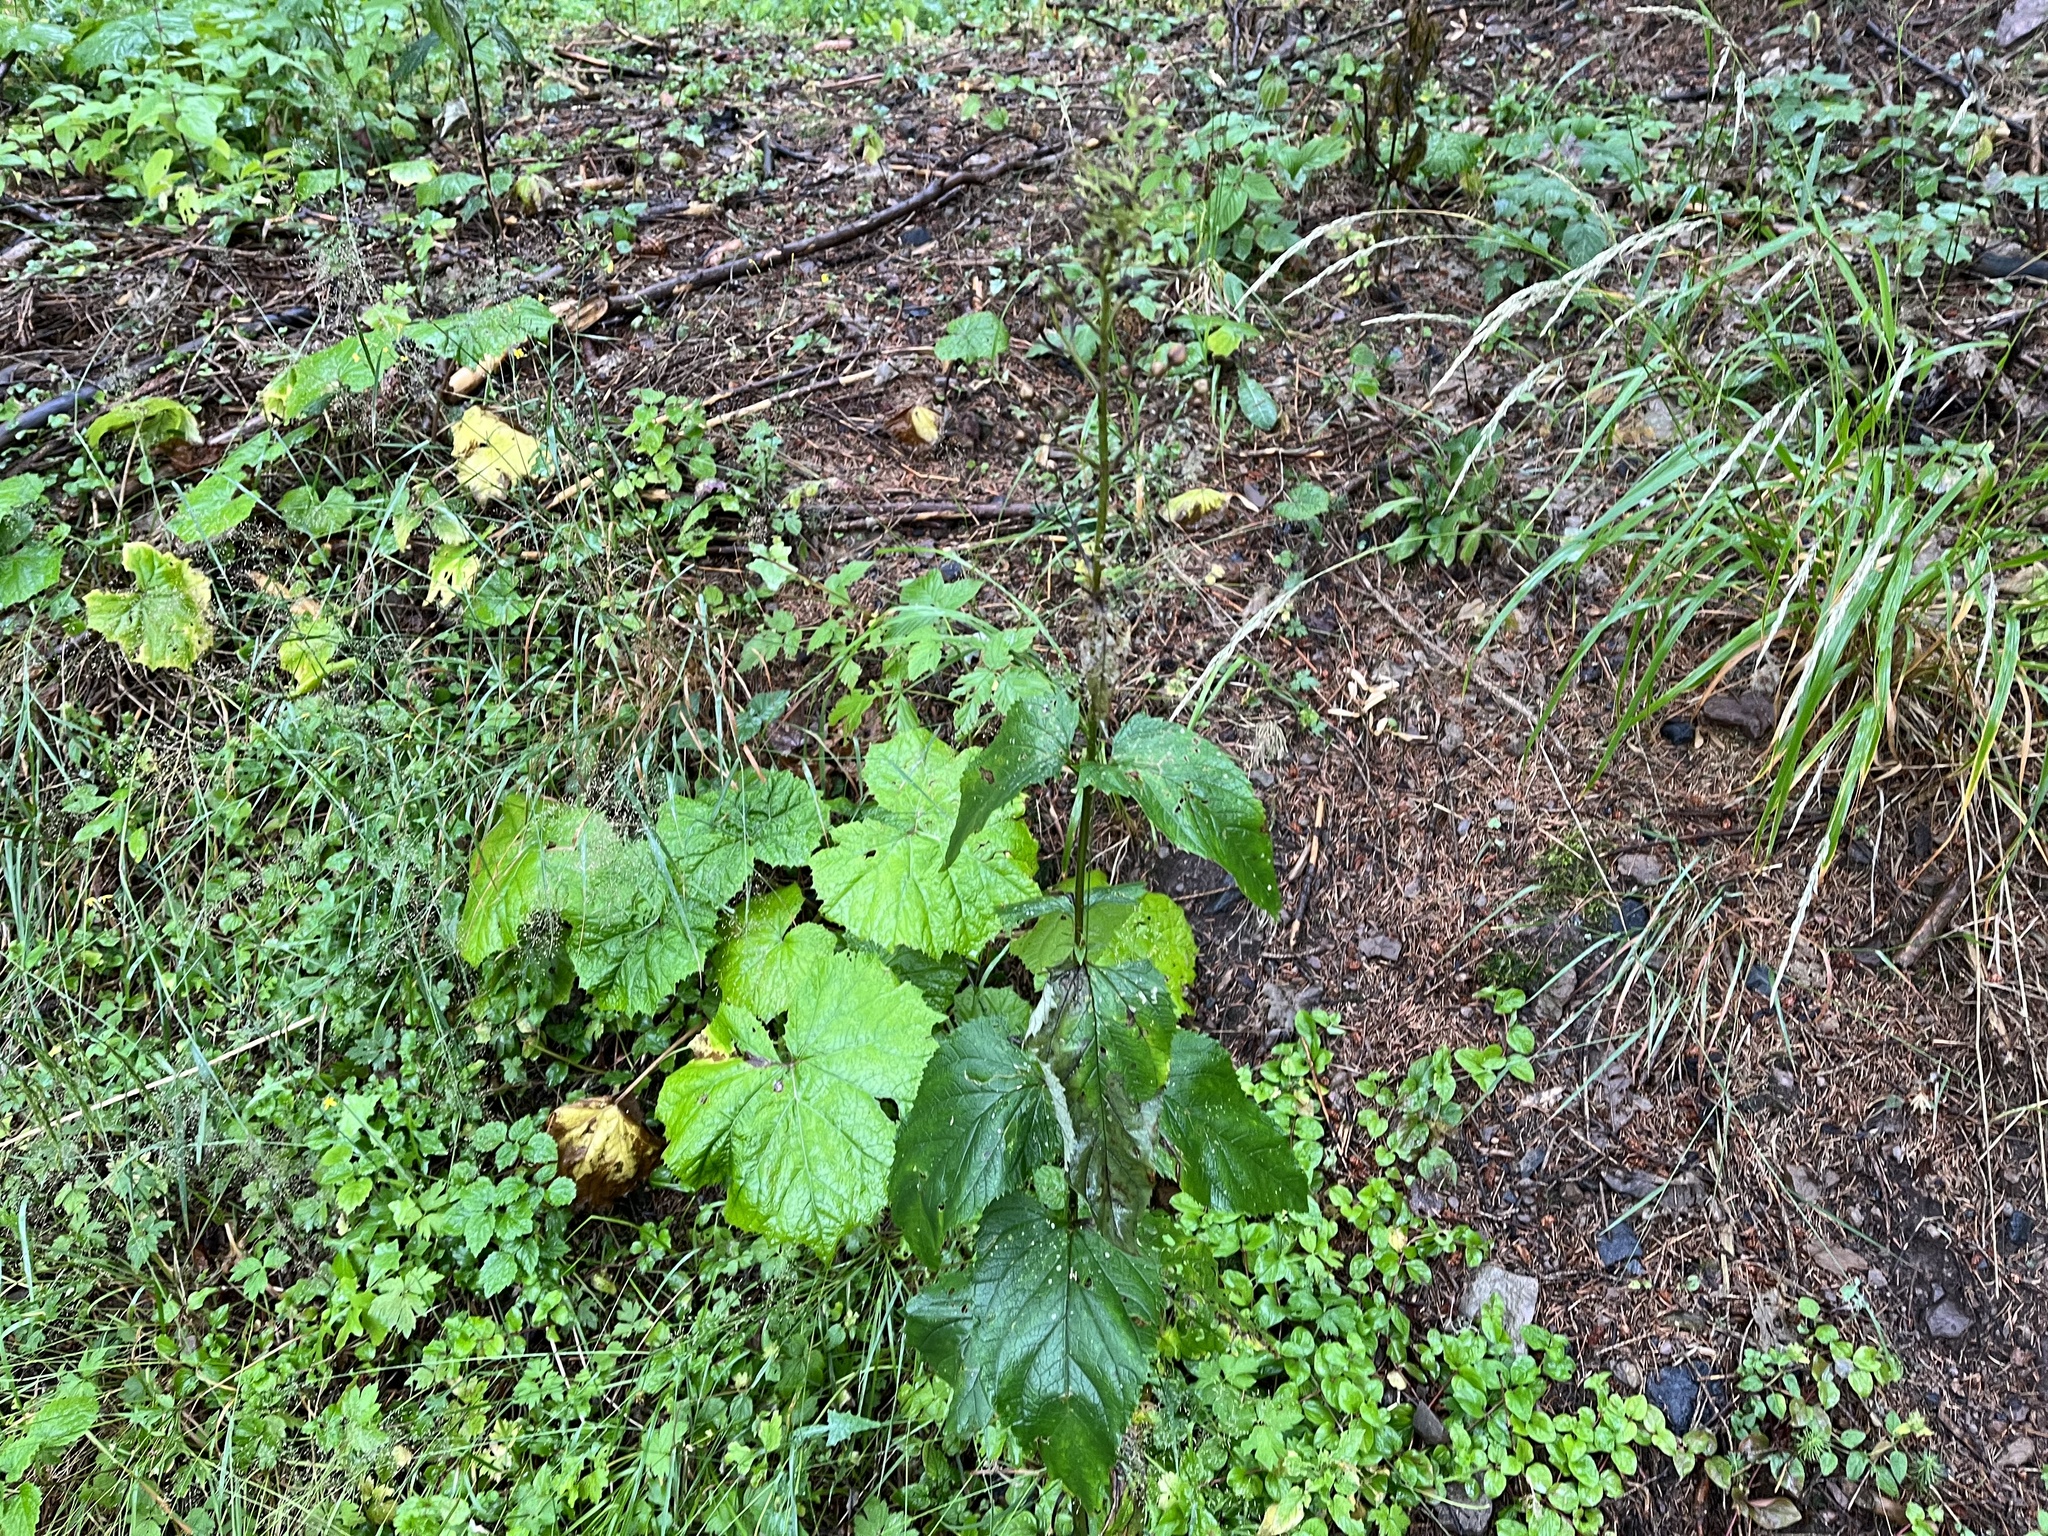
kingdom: Plantae
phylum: Tracheophyta
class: Magnoliopsida
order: Lamiales
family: Scrophulariaceae
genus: Scrophularia
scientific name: Scrophularia nodosa
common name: Common figwort
